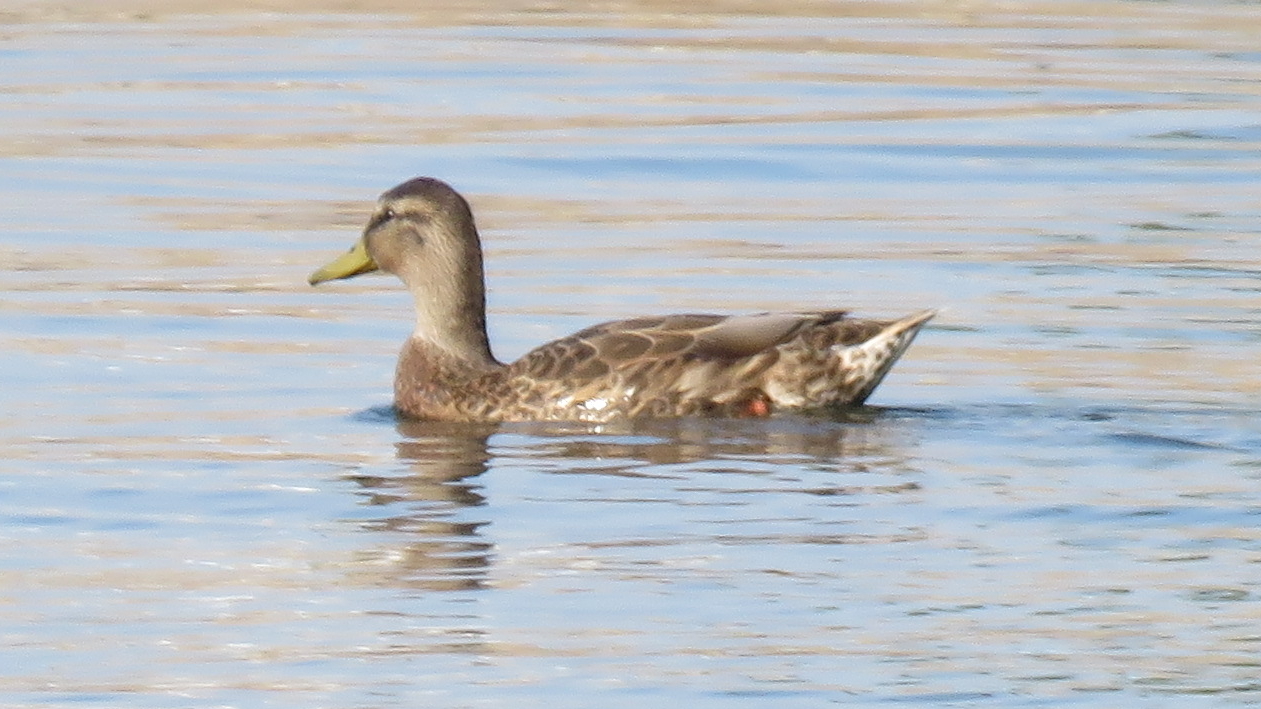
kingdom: Animalia
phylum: Chordata
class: Aves
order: Anseriformes
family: Anatidae
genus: Anas
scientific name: Anas platyrhynchos
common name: Mallard
